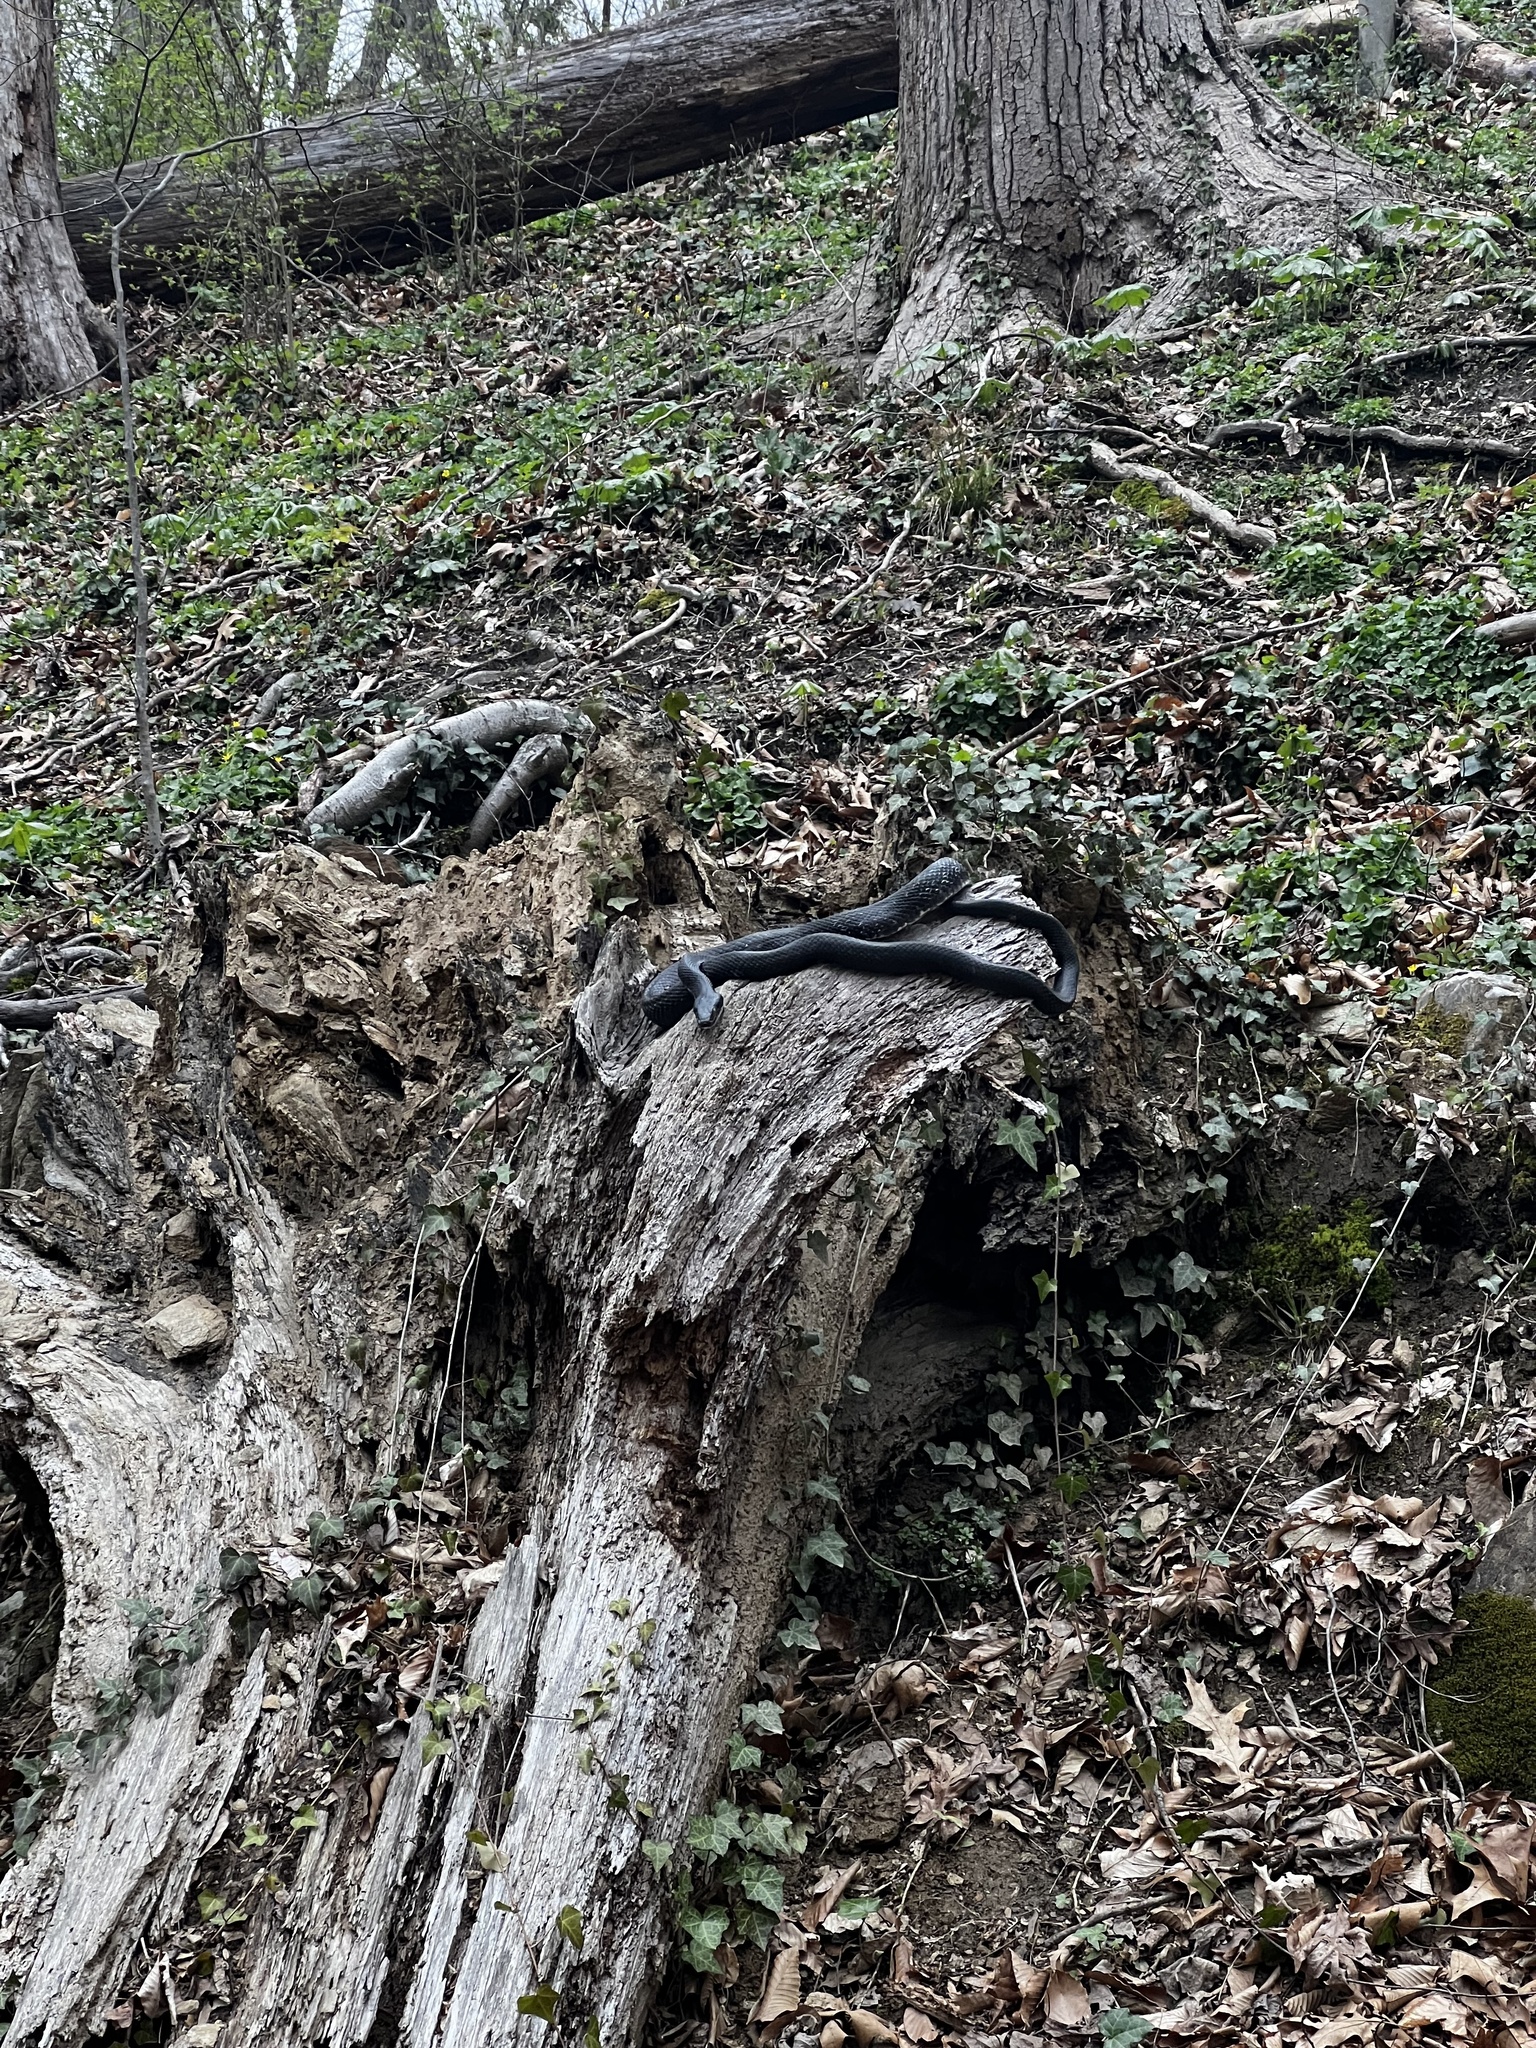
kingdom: Animalia
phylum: Chordata
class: Squamata
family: Colubridae
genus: Pantherophis
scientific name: Pantherophis
